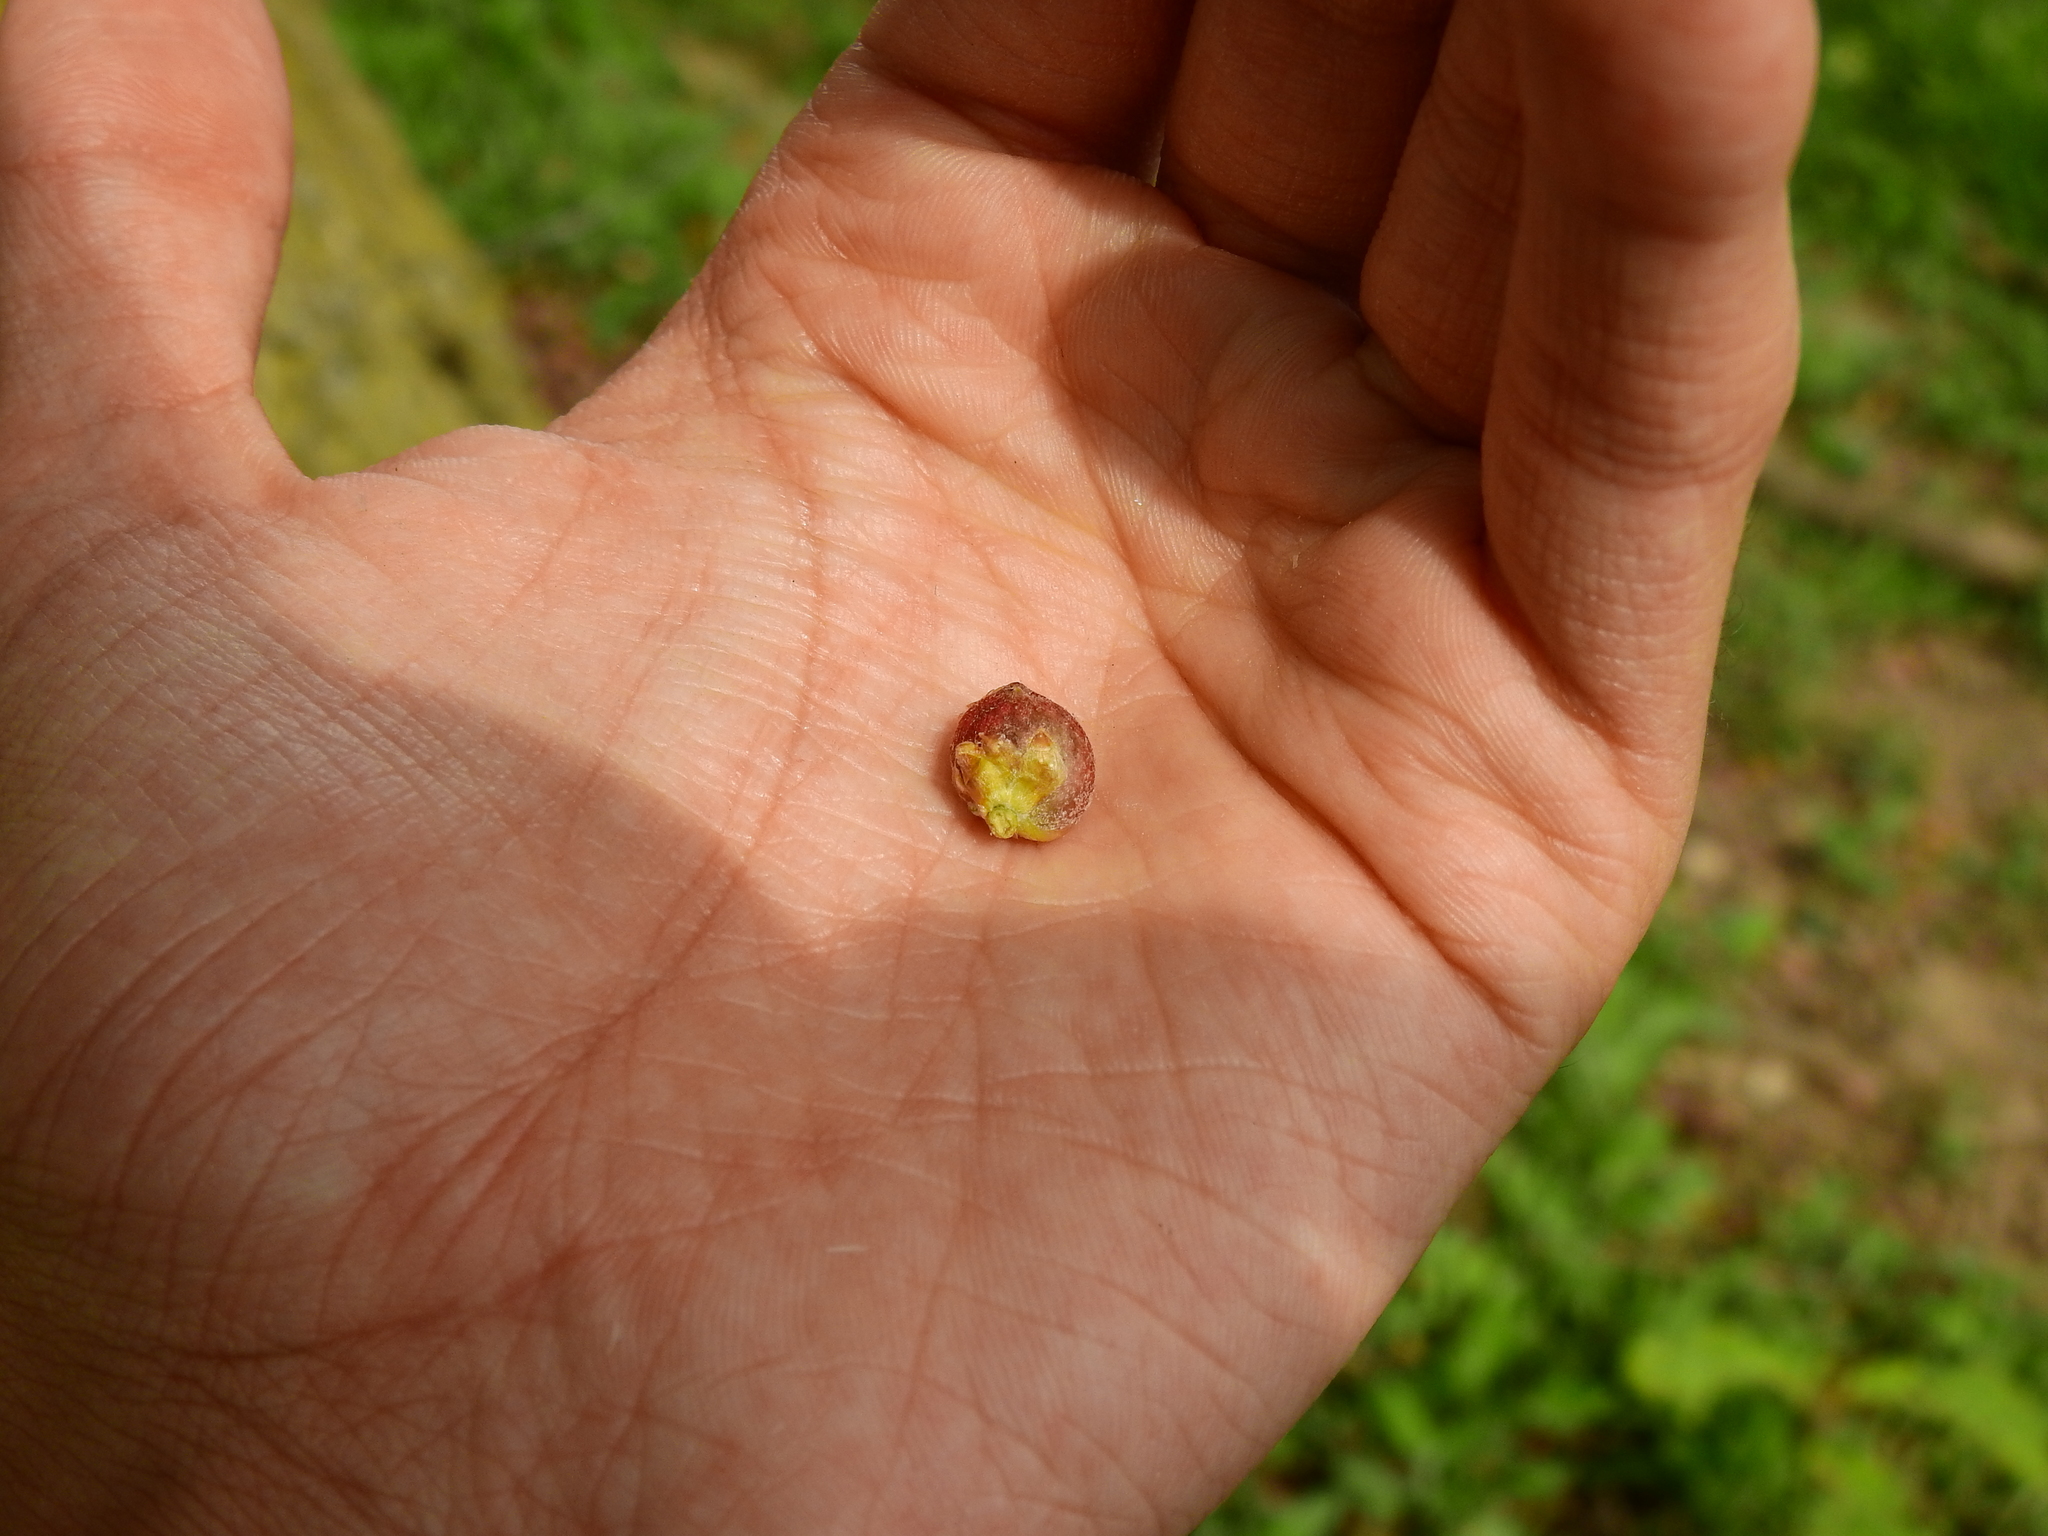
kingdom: Animalia
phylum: Arthropoda
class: Insecta
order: Hymenoptera
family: Cynipidae
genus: Dryocosmus
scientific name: Dryocosmus quercuspalustris
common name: Succulent oak gall wasp
